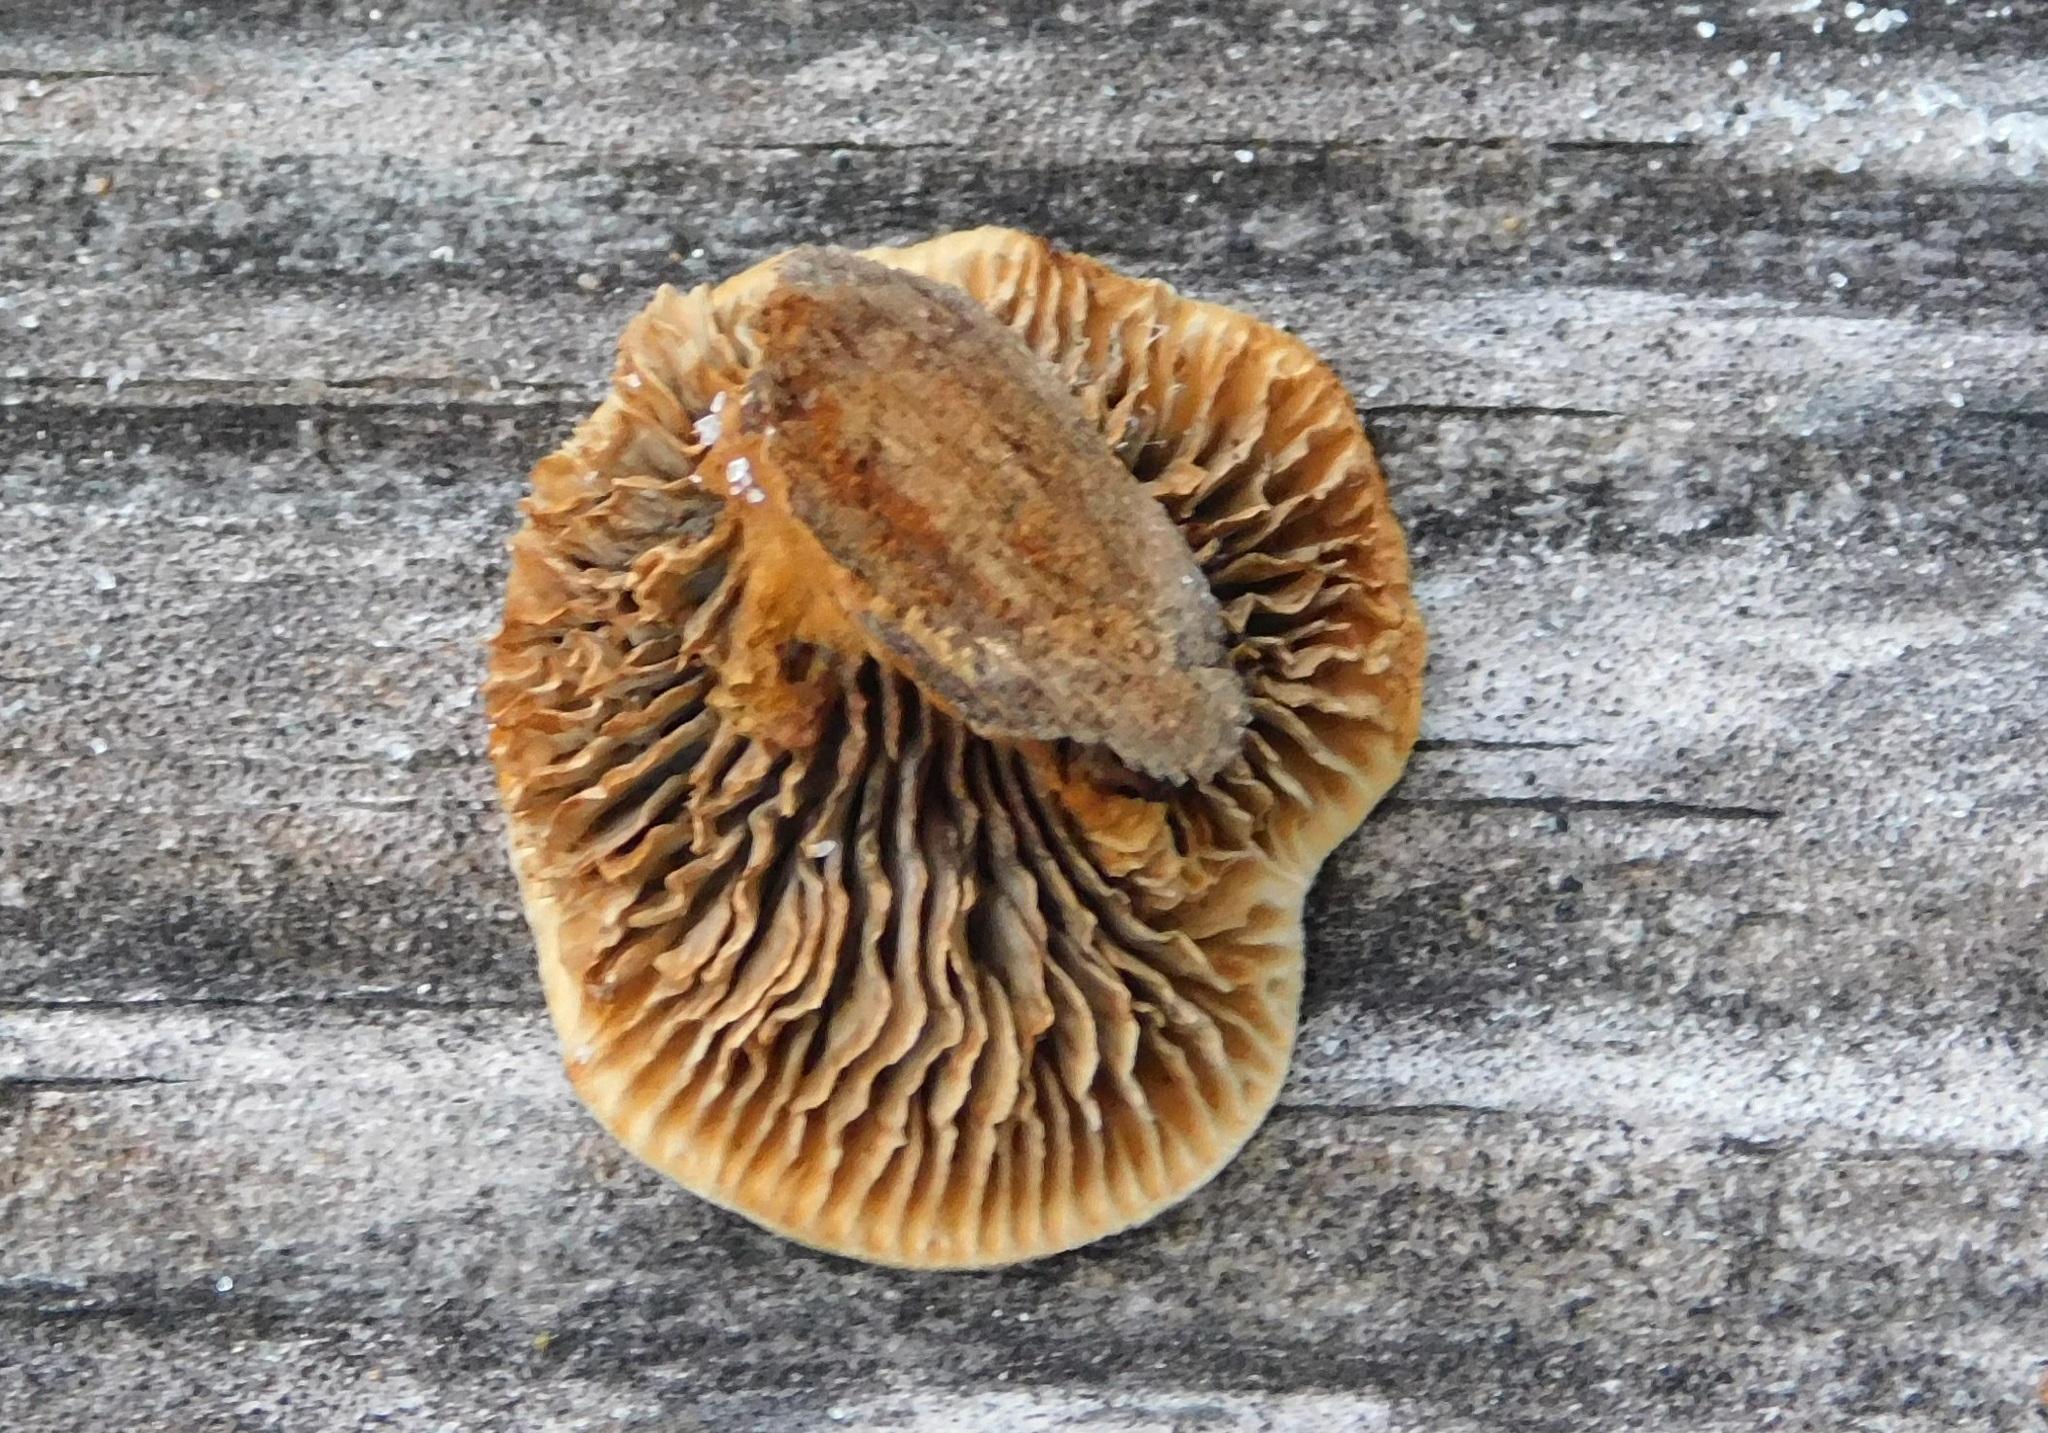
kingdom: Fungi
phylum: Basidiomycota
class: Agaricomycetes
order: Gloeophyllales
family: Gloeophyllaceae
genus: Gloeophyllum
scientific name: Gloeophyllum sepiarium
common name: Conifer mazegill
